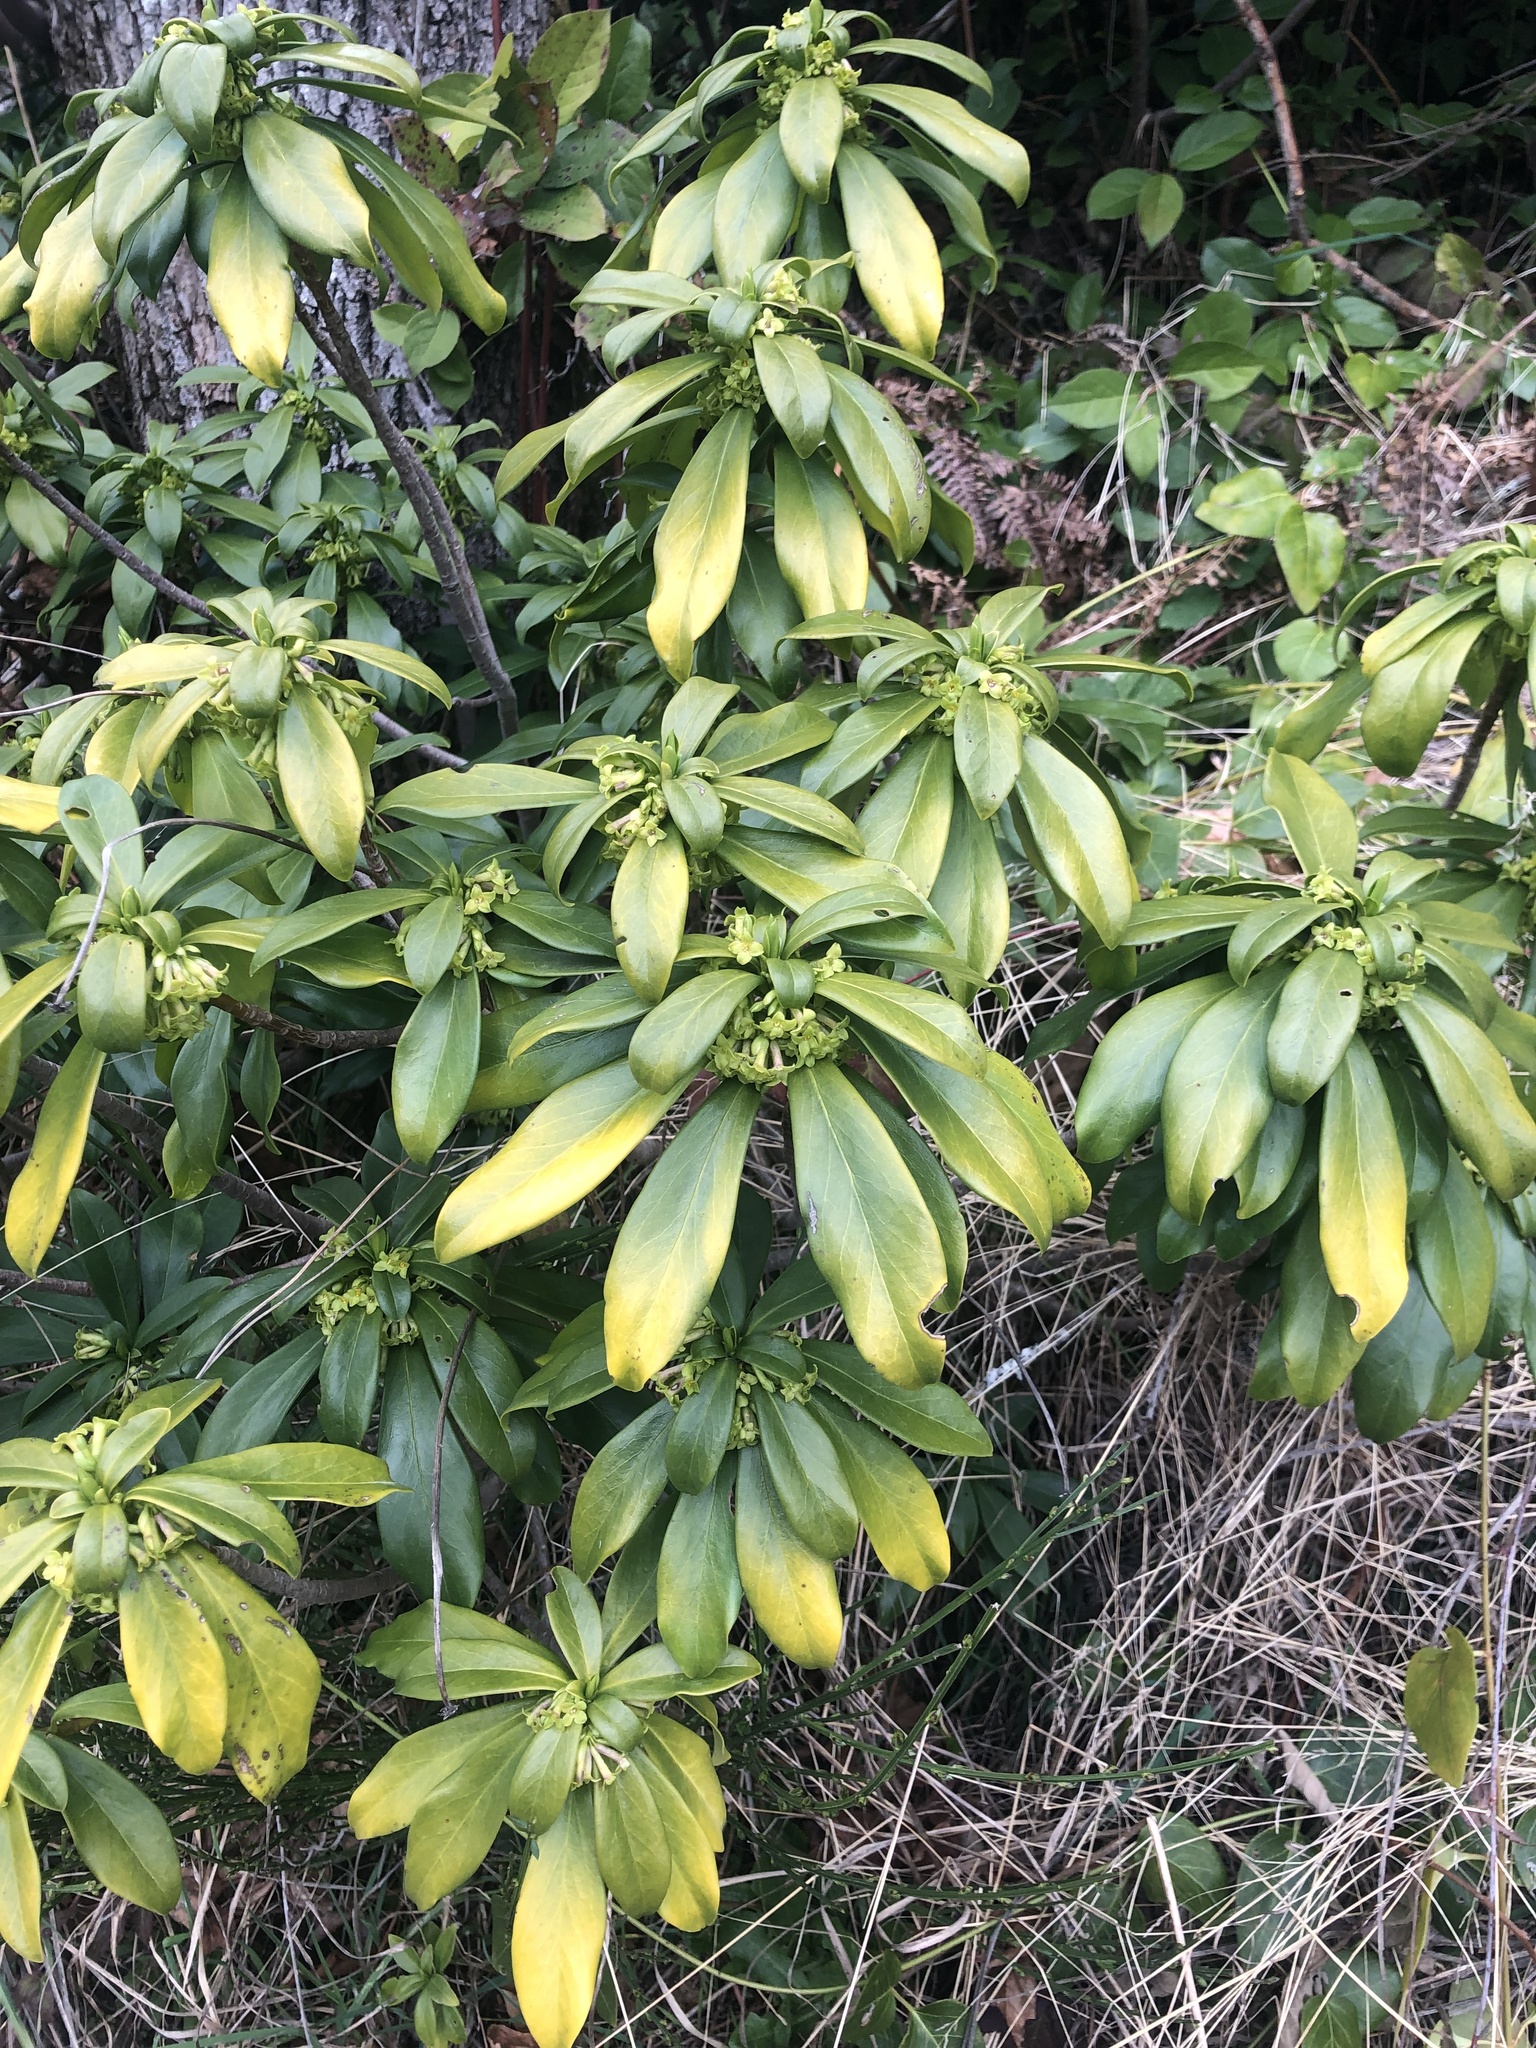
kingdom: Plantae
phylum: Tracheophyta
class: Magnoliopsida
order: Malvales
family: Thymelaeaceae
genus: Daphne
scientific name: Daphne laureola
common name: Spurge-laurel
